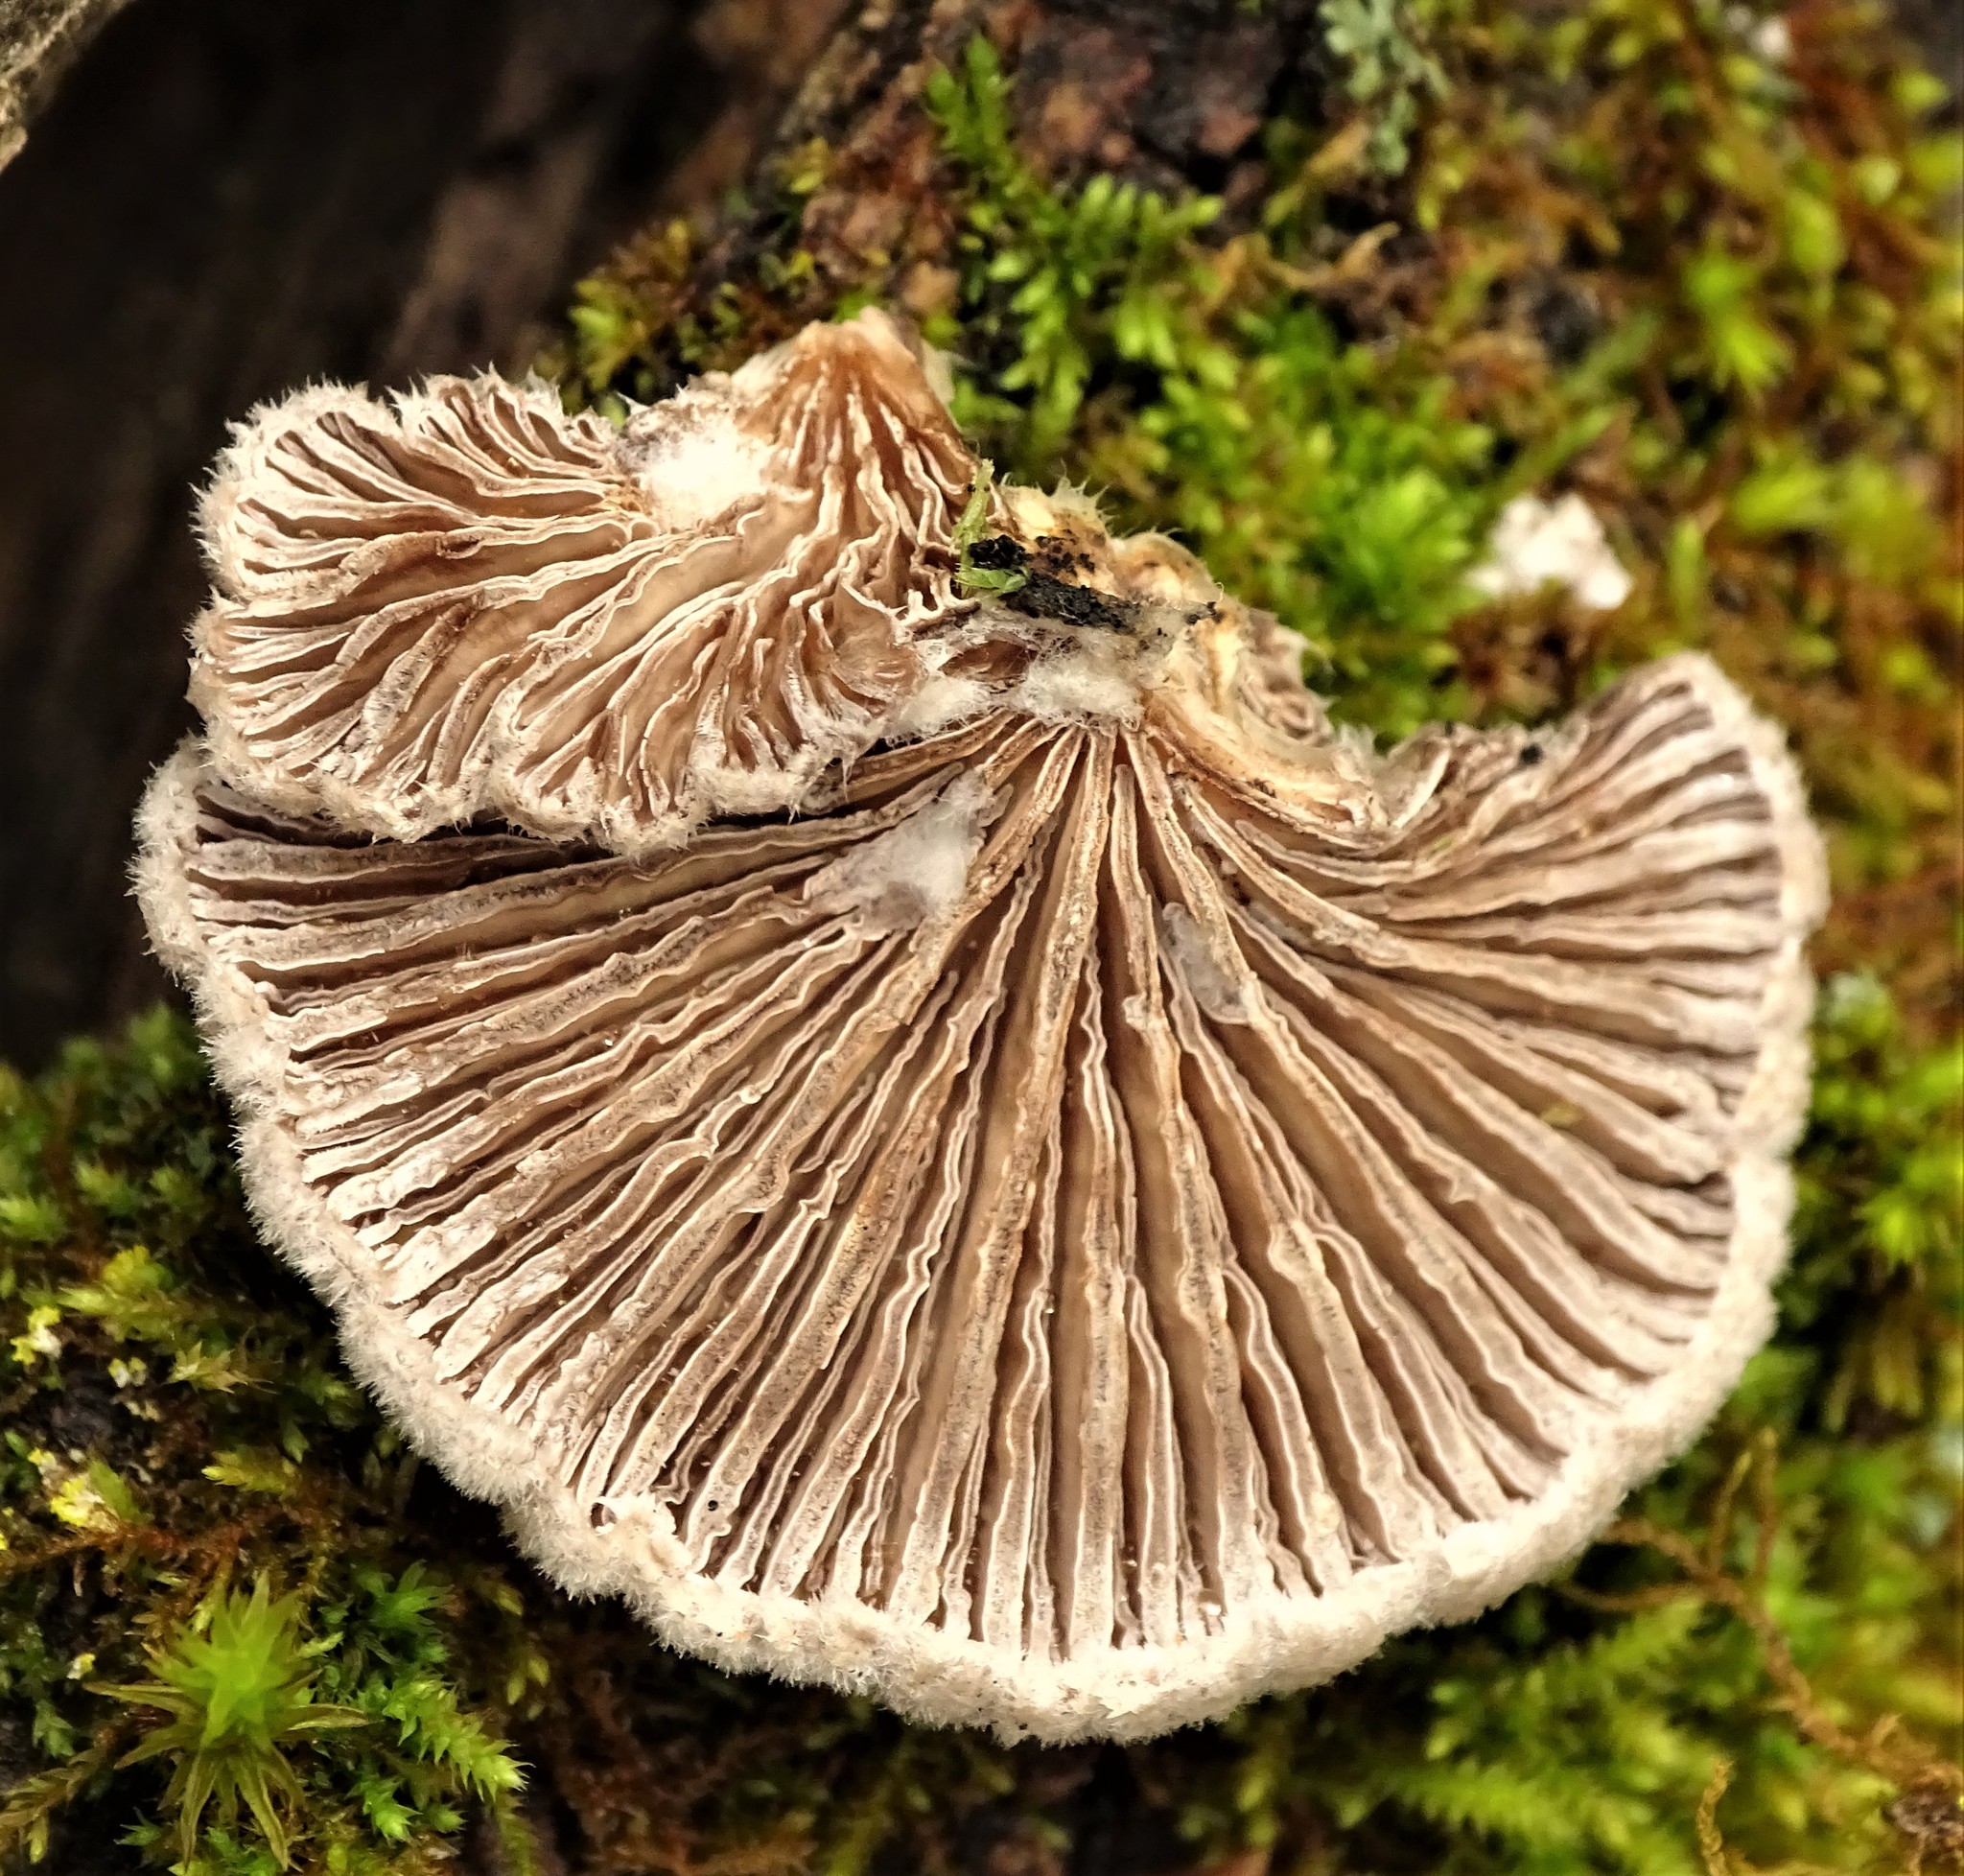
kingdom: Fungi
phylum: Basidiomycota
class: Agaricomycetes
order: Agaricales
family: Schizophyllaceae
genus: Schizophyllum
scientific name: Schizophyllum commune
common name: Common porecrust
